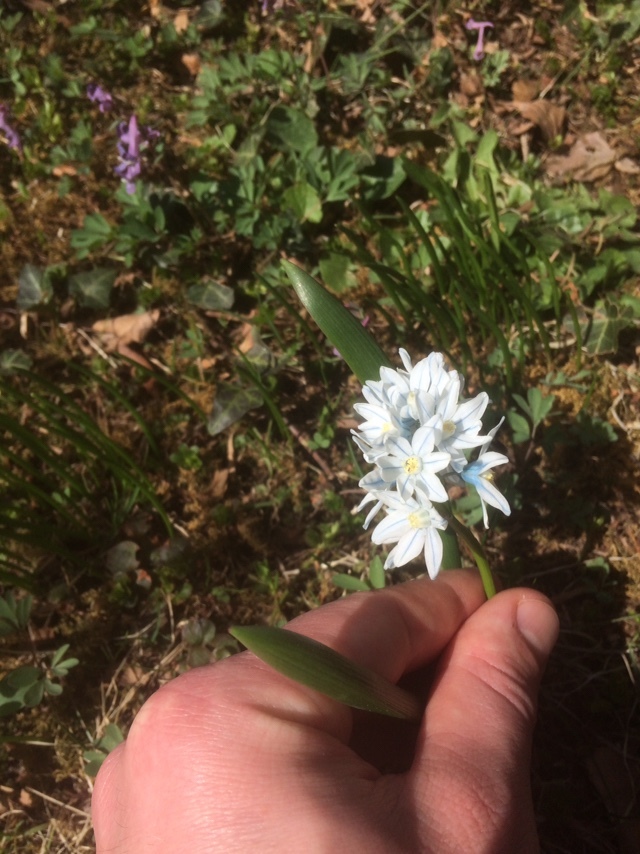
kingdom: Plantae
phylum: Tracheophyta
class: Liliopsida
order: Asparagales
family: Asparagaceae
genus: Puschkinia
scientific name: Puschkinia scilloides
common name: Striped squill
